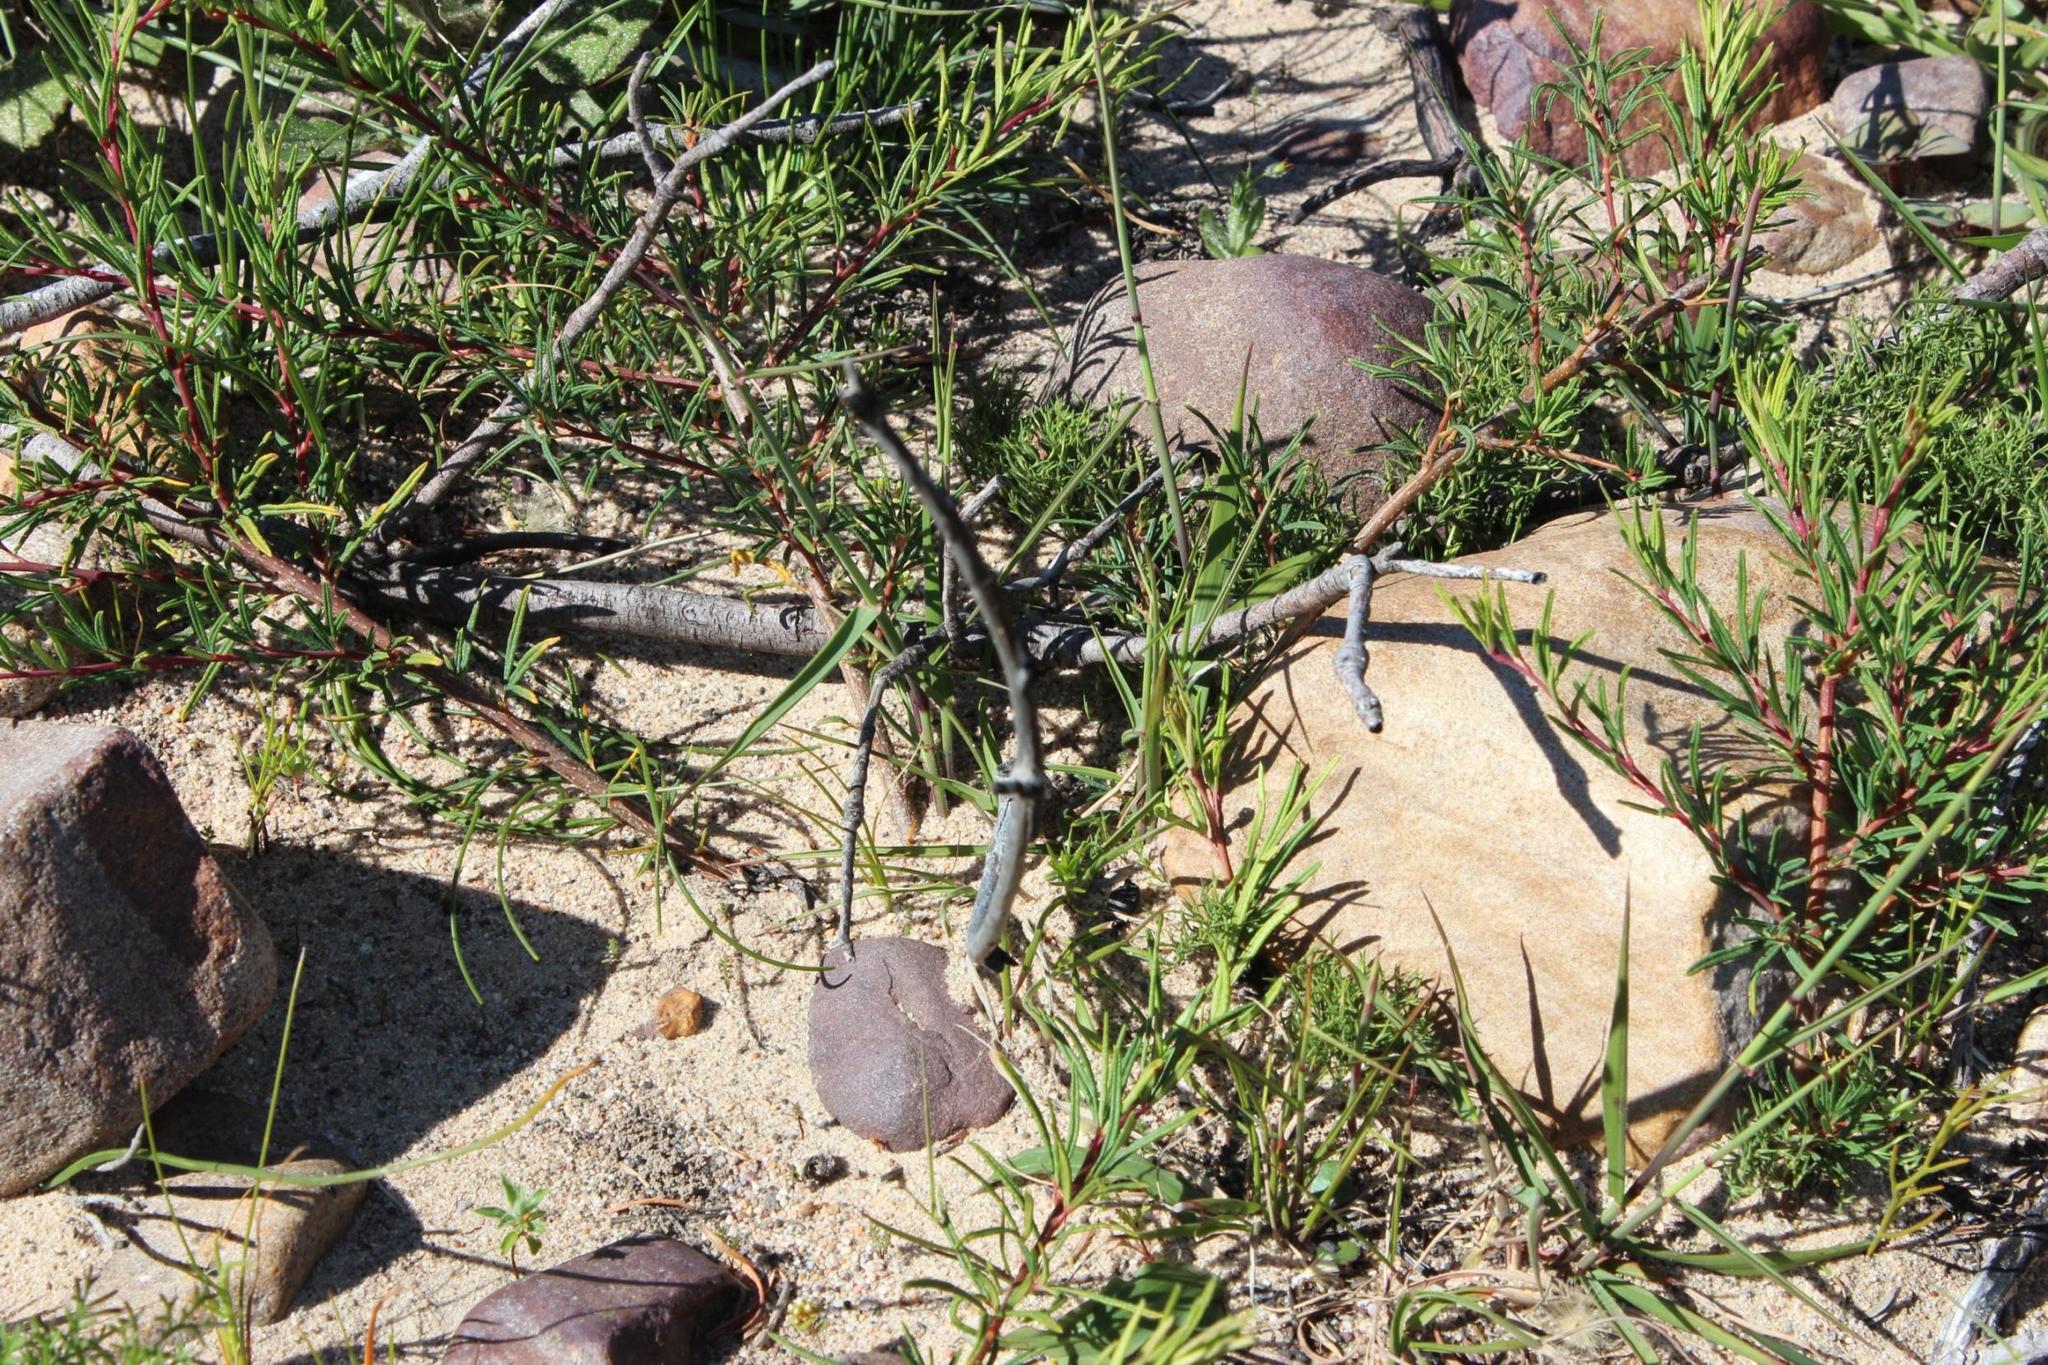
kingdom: Plantae
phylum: Tracheophyta
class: Magnoliopsida
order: Sapindales
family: Anacardiaceae
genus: Searsia
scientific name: Searsia rosmarinifolia
